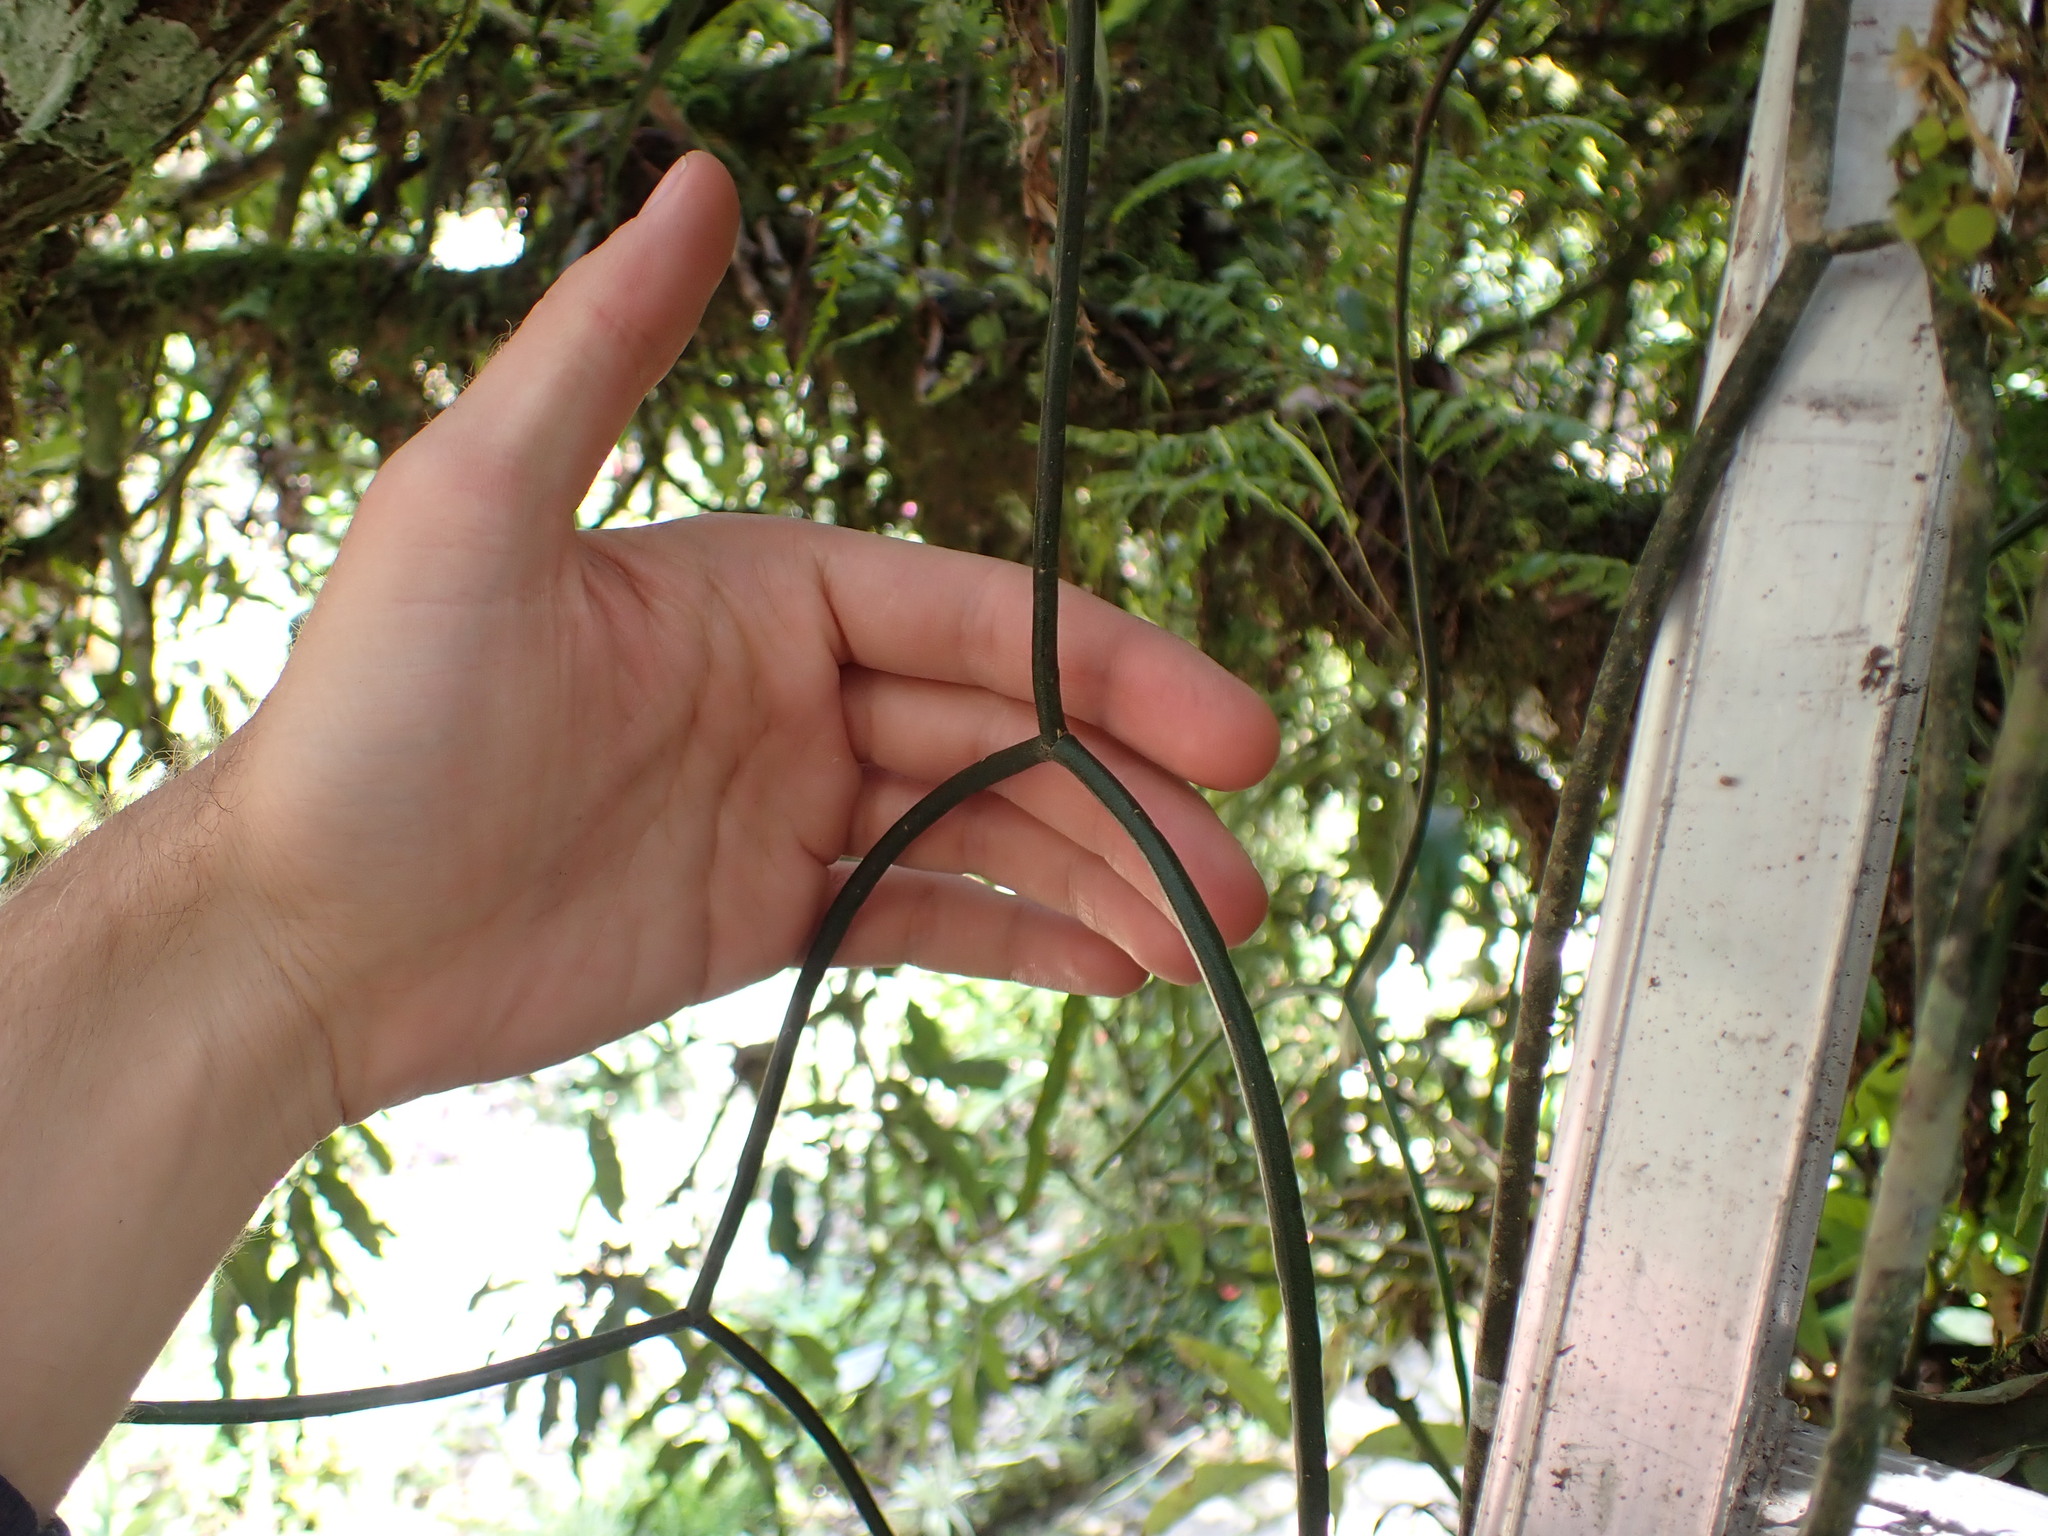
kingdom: Plantae
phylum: Tracheophyta
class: Magnoliopsida
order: Caryophyllales
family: Cactaceae
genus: Rhipsalis
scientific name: Rhipsalis baccifera
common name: Mistletoe cactus
